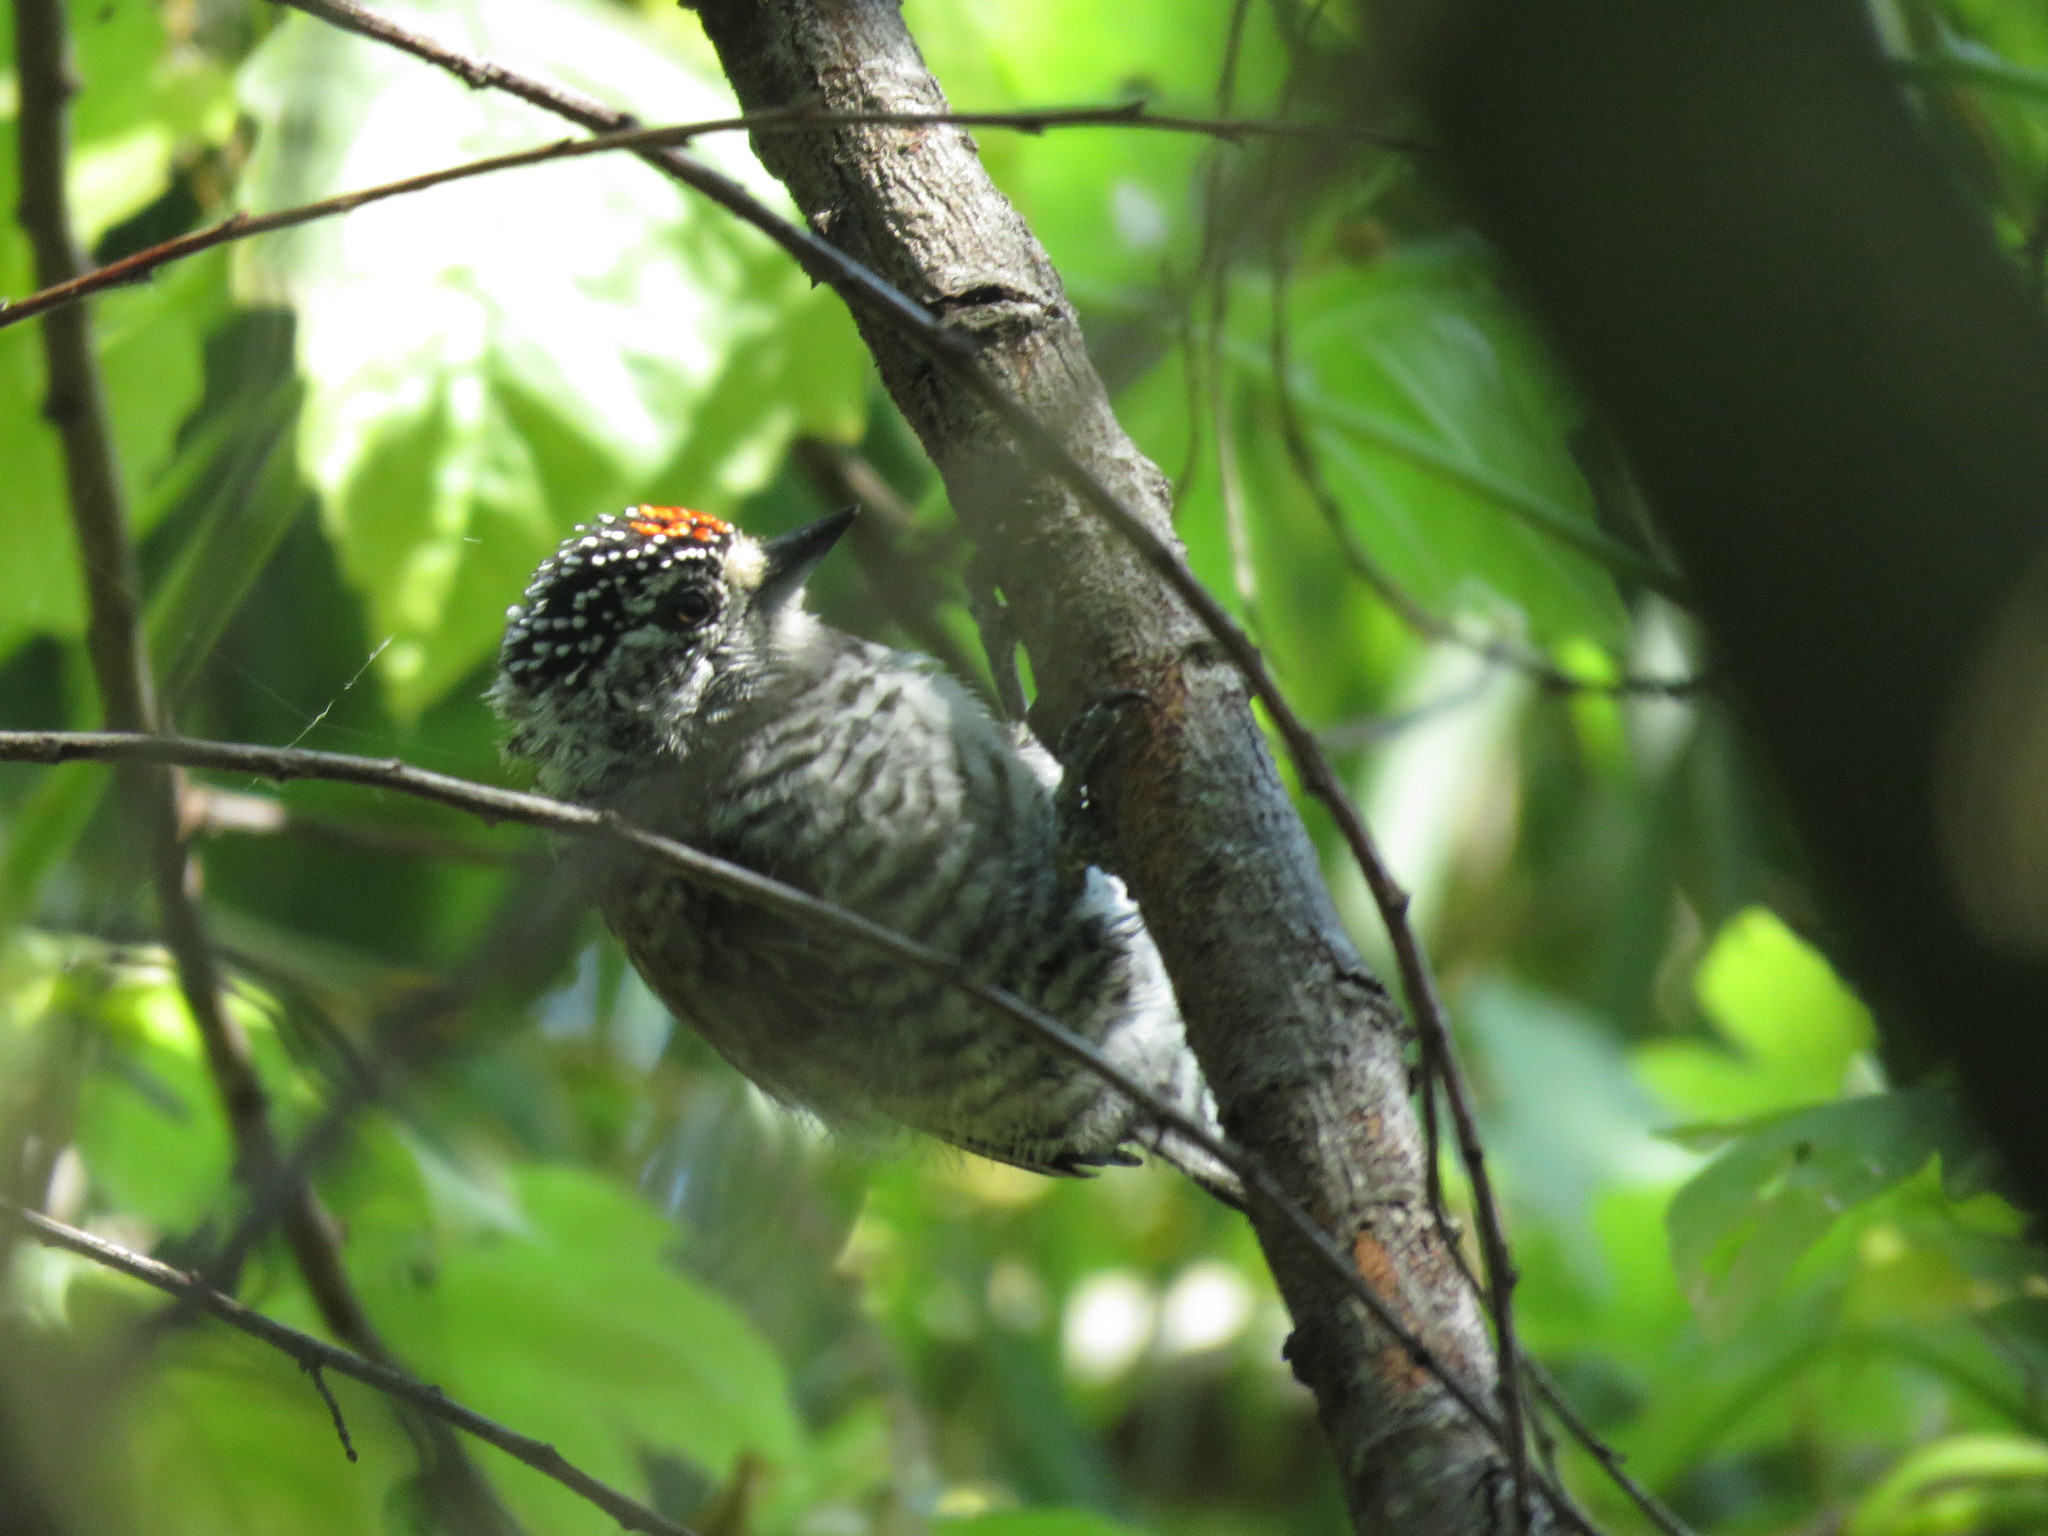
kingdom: Animalia
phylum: Chordata
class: Aves
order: Piciformes
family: Picidae
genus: Picumnus
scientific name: Picumnus cirratus
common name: White-barred piculet
